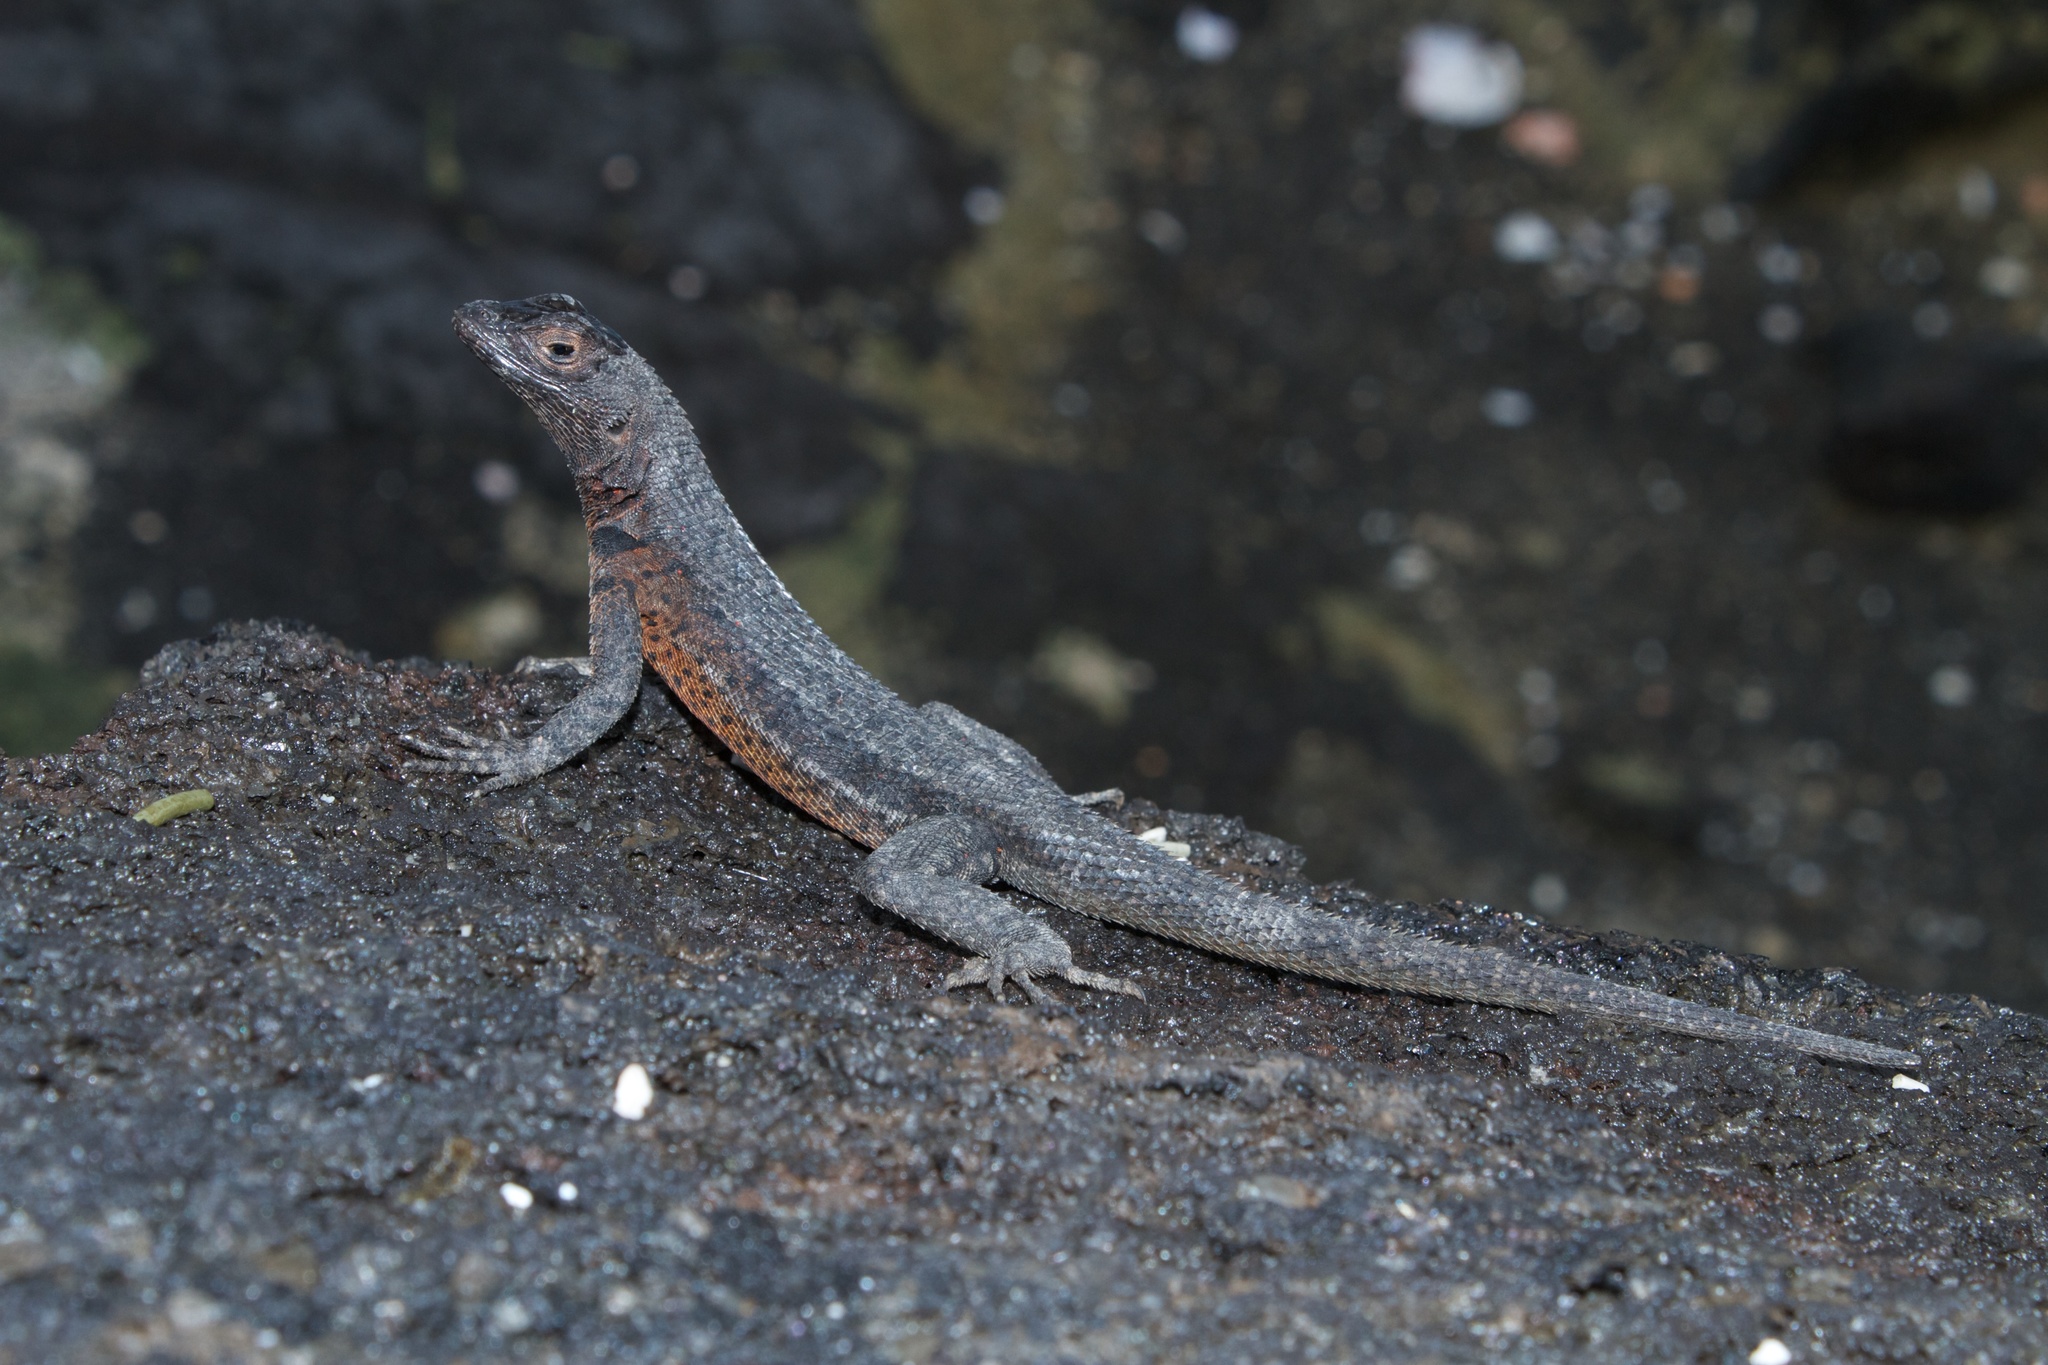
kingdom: Animalia
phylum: Chordata
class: Squamata
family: Tropiduridae
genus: Microlophus
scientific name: Microlophus albemarlensis
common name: Galapagos lava lizard
